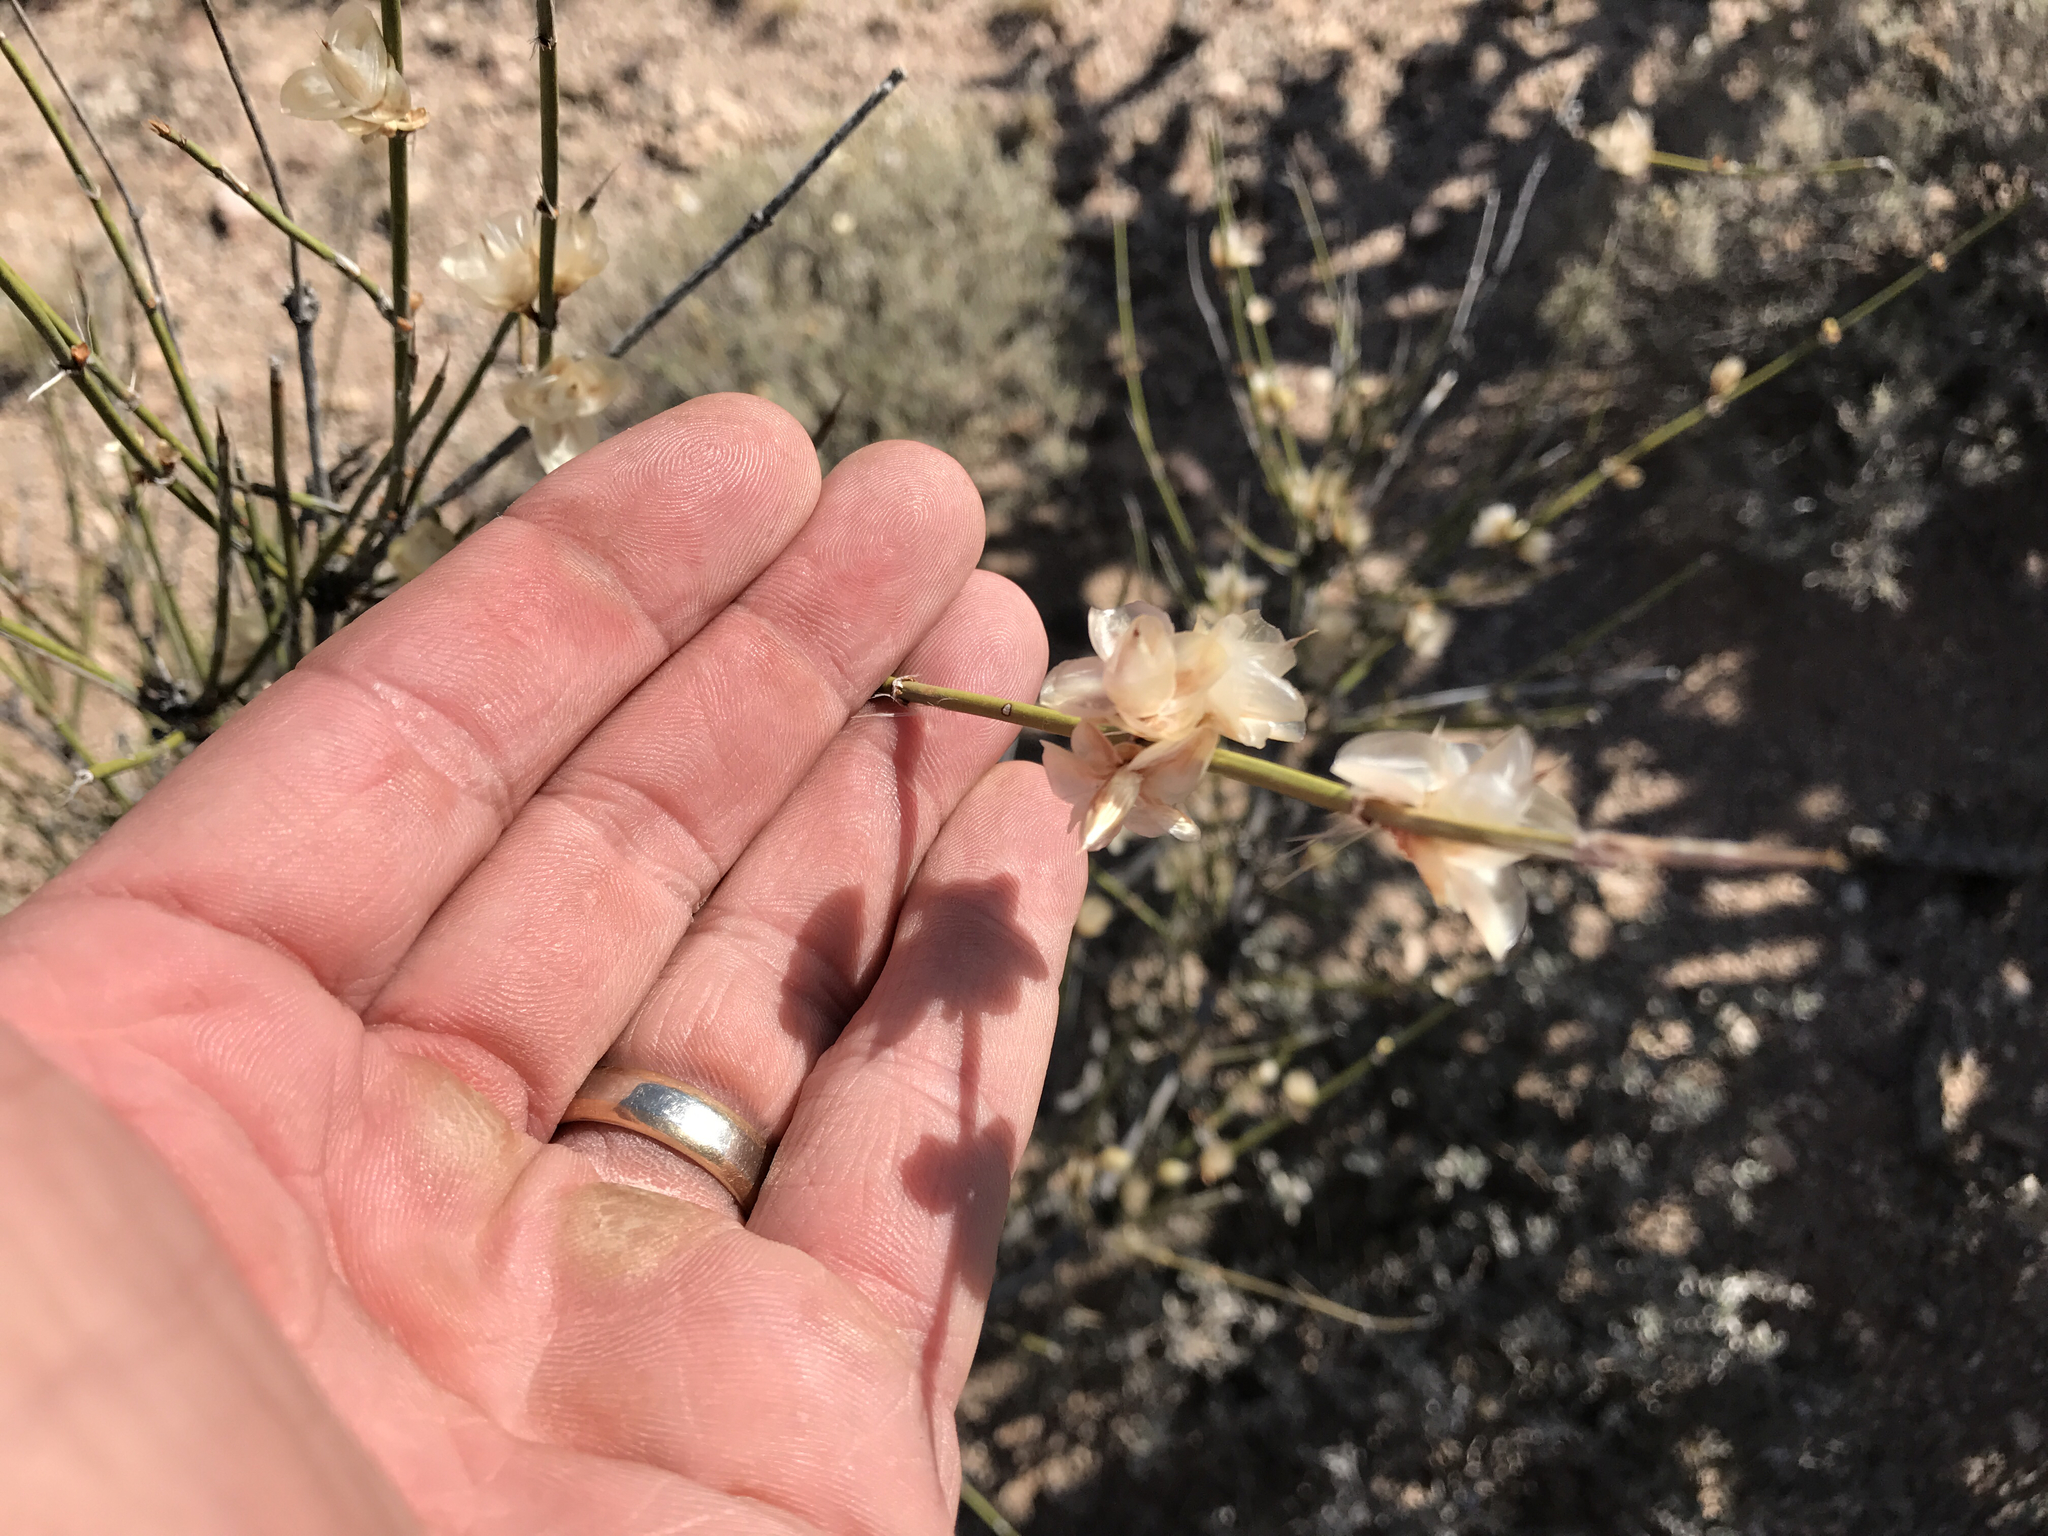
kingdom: Plantae
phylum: Tracheophyta
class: Gnetopsida
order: Ephedrales
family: Ephedraceae
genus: Ephedra
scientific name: Ephedra trifurca
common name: Mexican-tea
